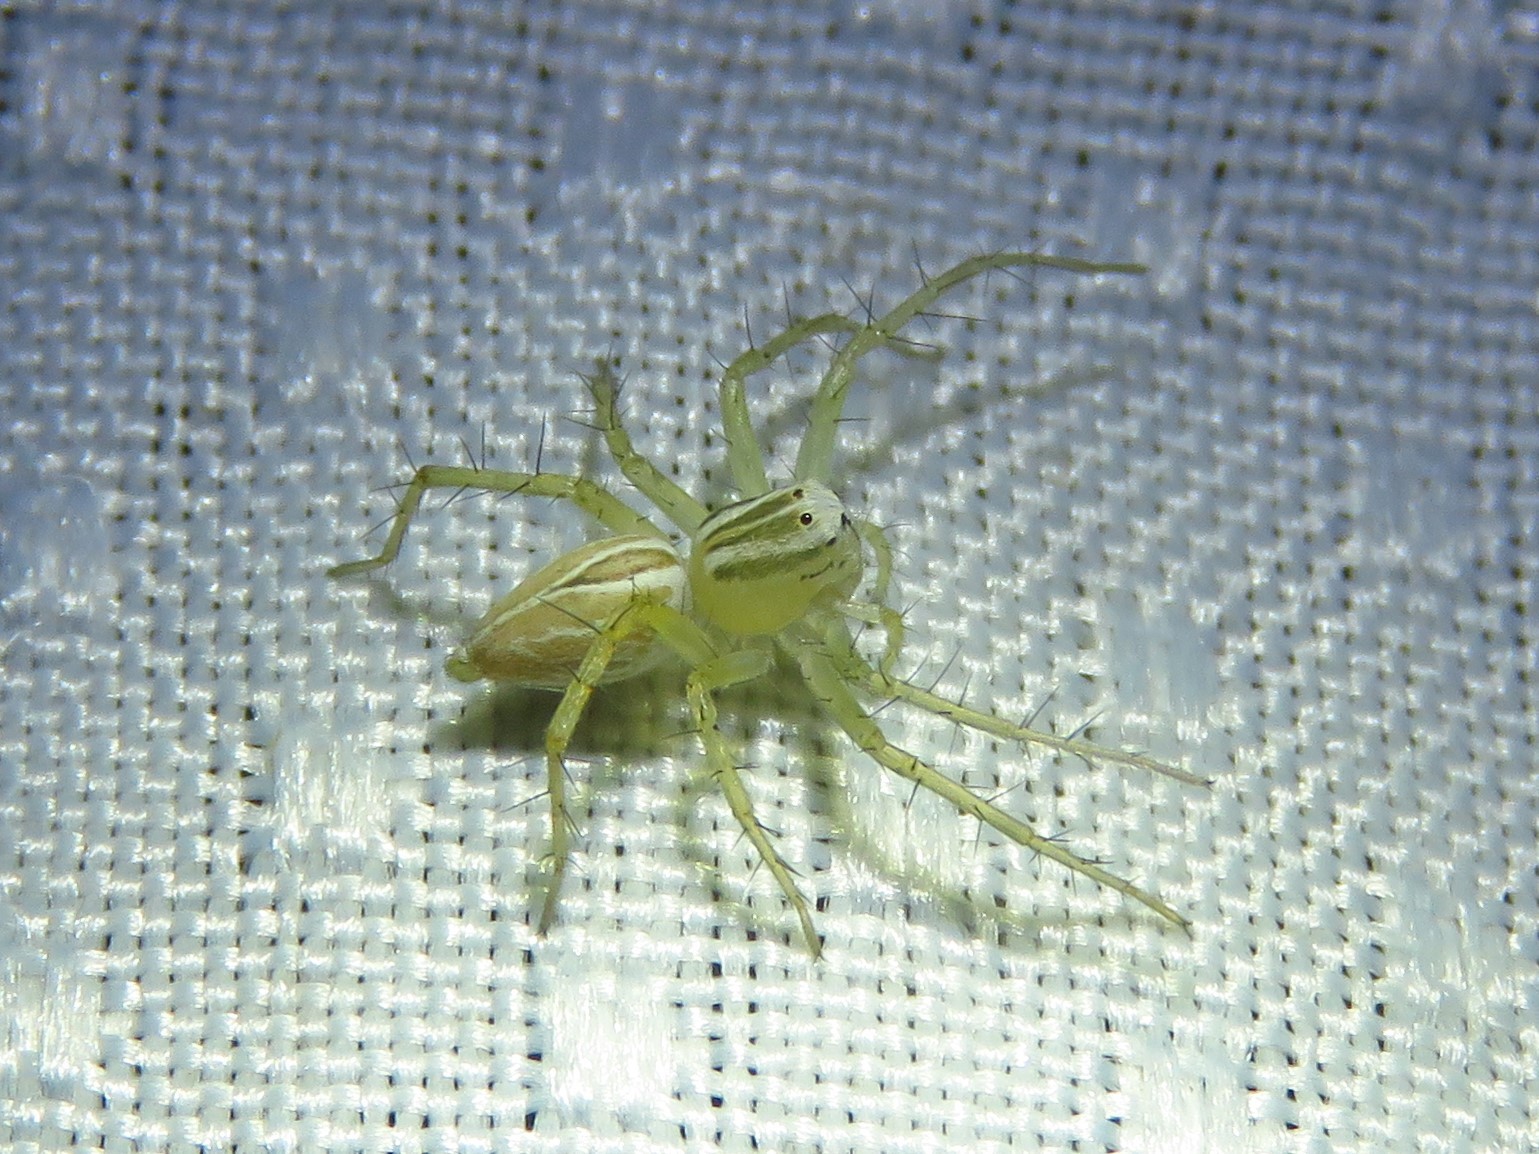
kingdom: Animalia
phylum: Arthropoda
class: Arachnida
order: Araneae
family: Oxyopidae
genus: Oxyopes
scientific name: Oxyopes salticus
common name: Lynx spiders
